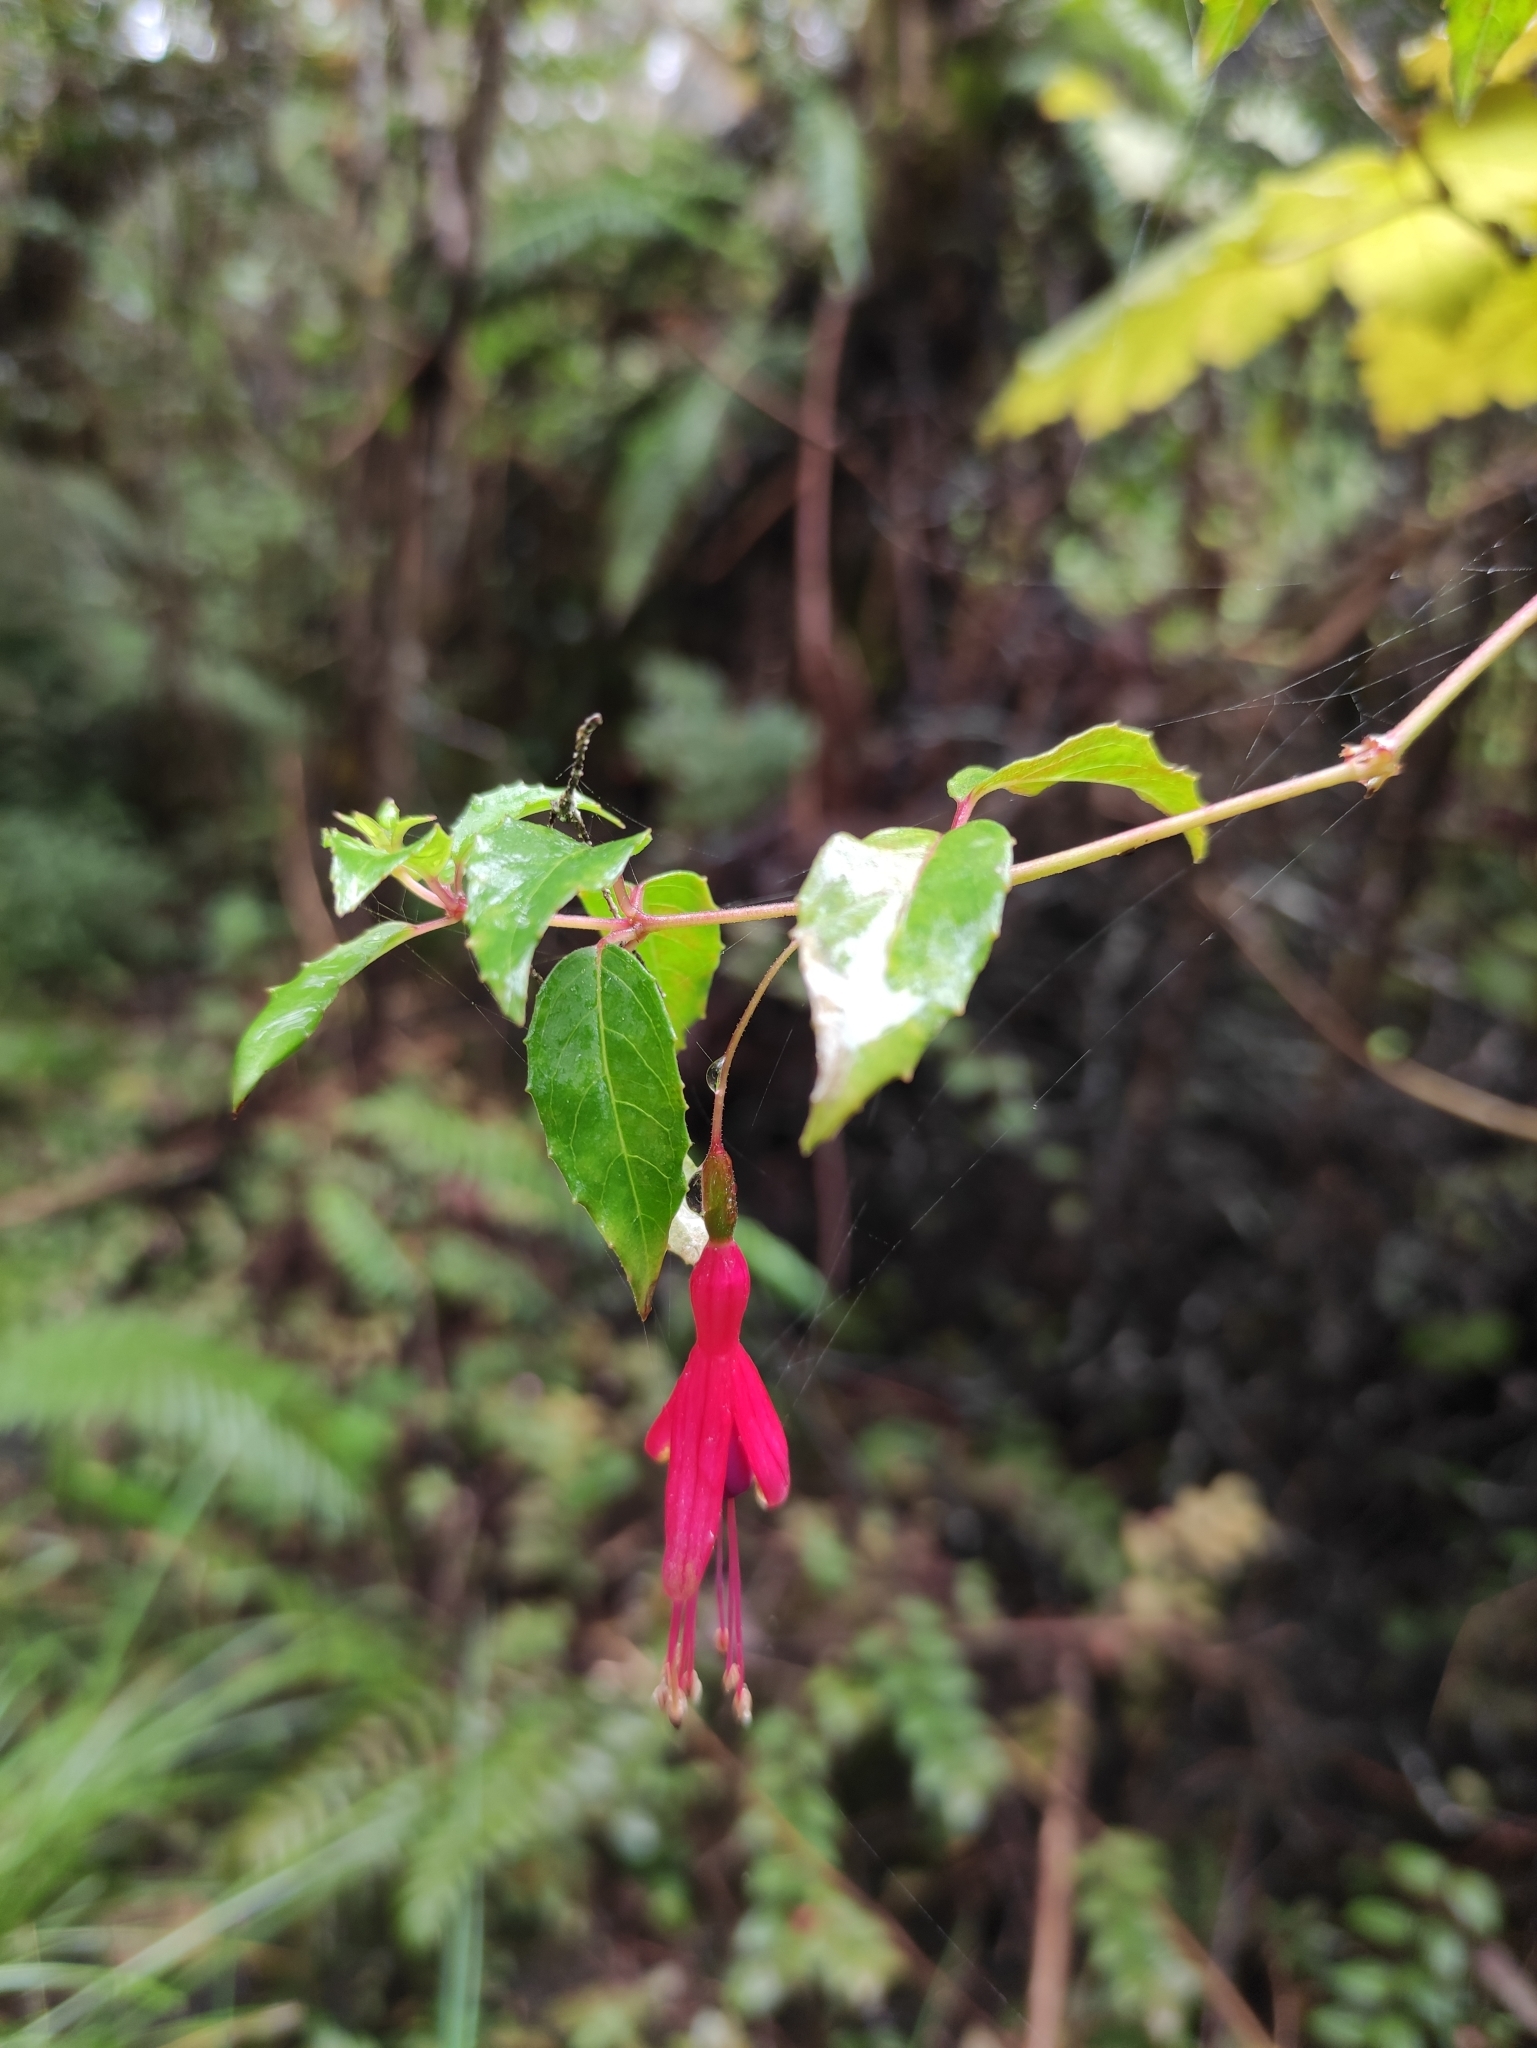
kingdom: Plantae
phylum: Tracheophyta
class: Magnoliopsida
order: Myrtales
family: Onagraceae
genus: Fuchsia
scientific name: Fuchsia magellanica
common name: Hardy fuchsia
